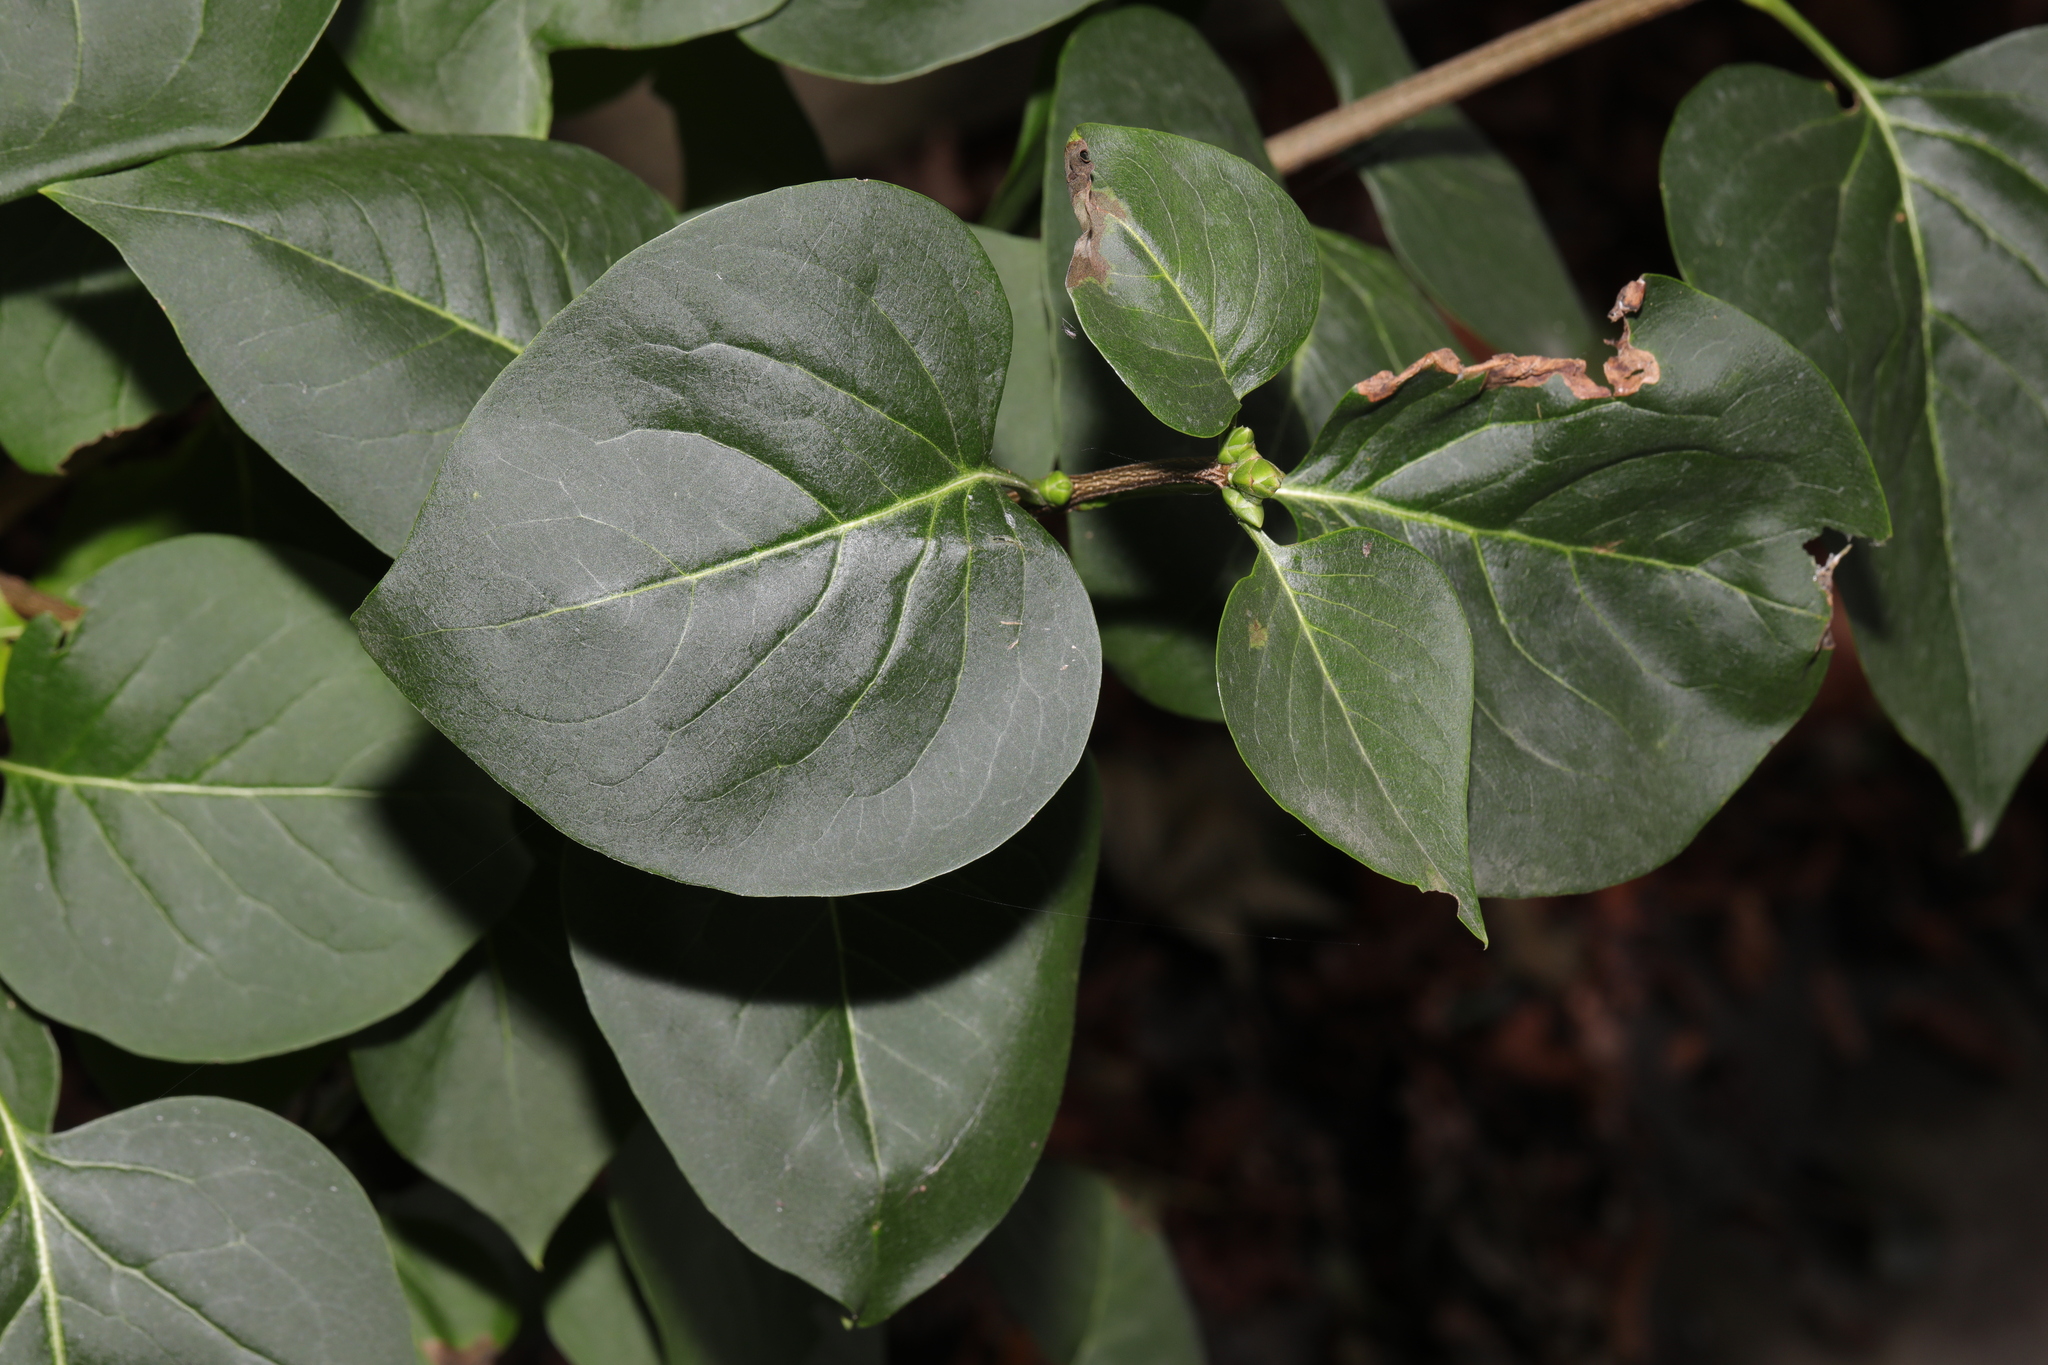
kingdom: Plantae
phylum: Tracheophyta
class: Magnoliopsida
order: Lamiales
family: Oleaceae
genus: Syringa
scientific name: Syringa vulgaris
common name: Common lilac
